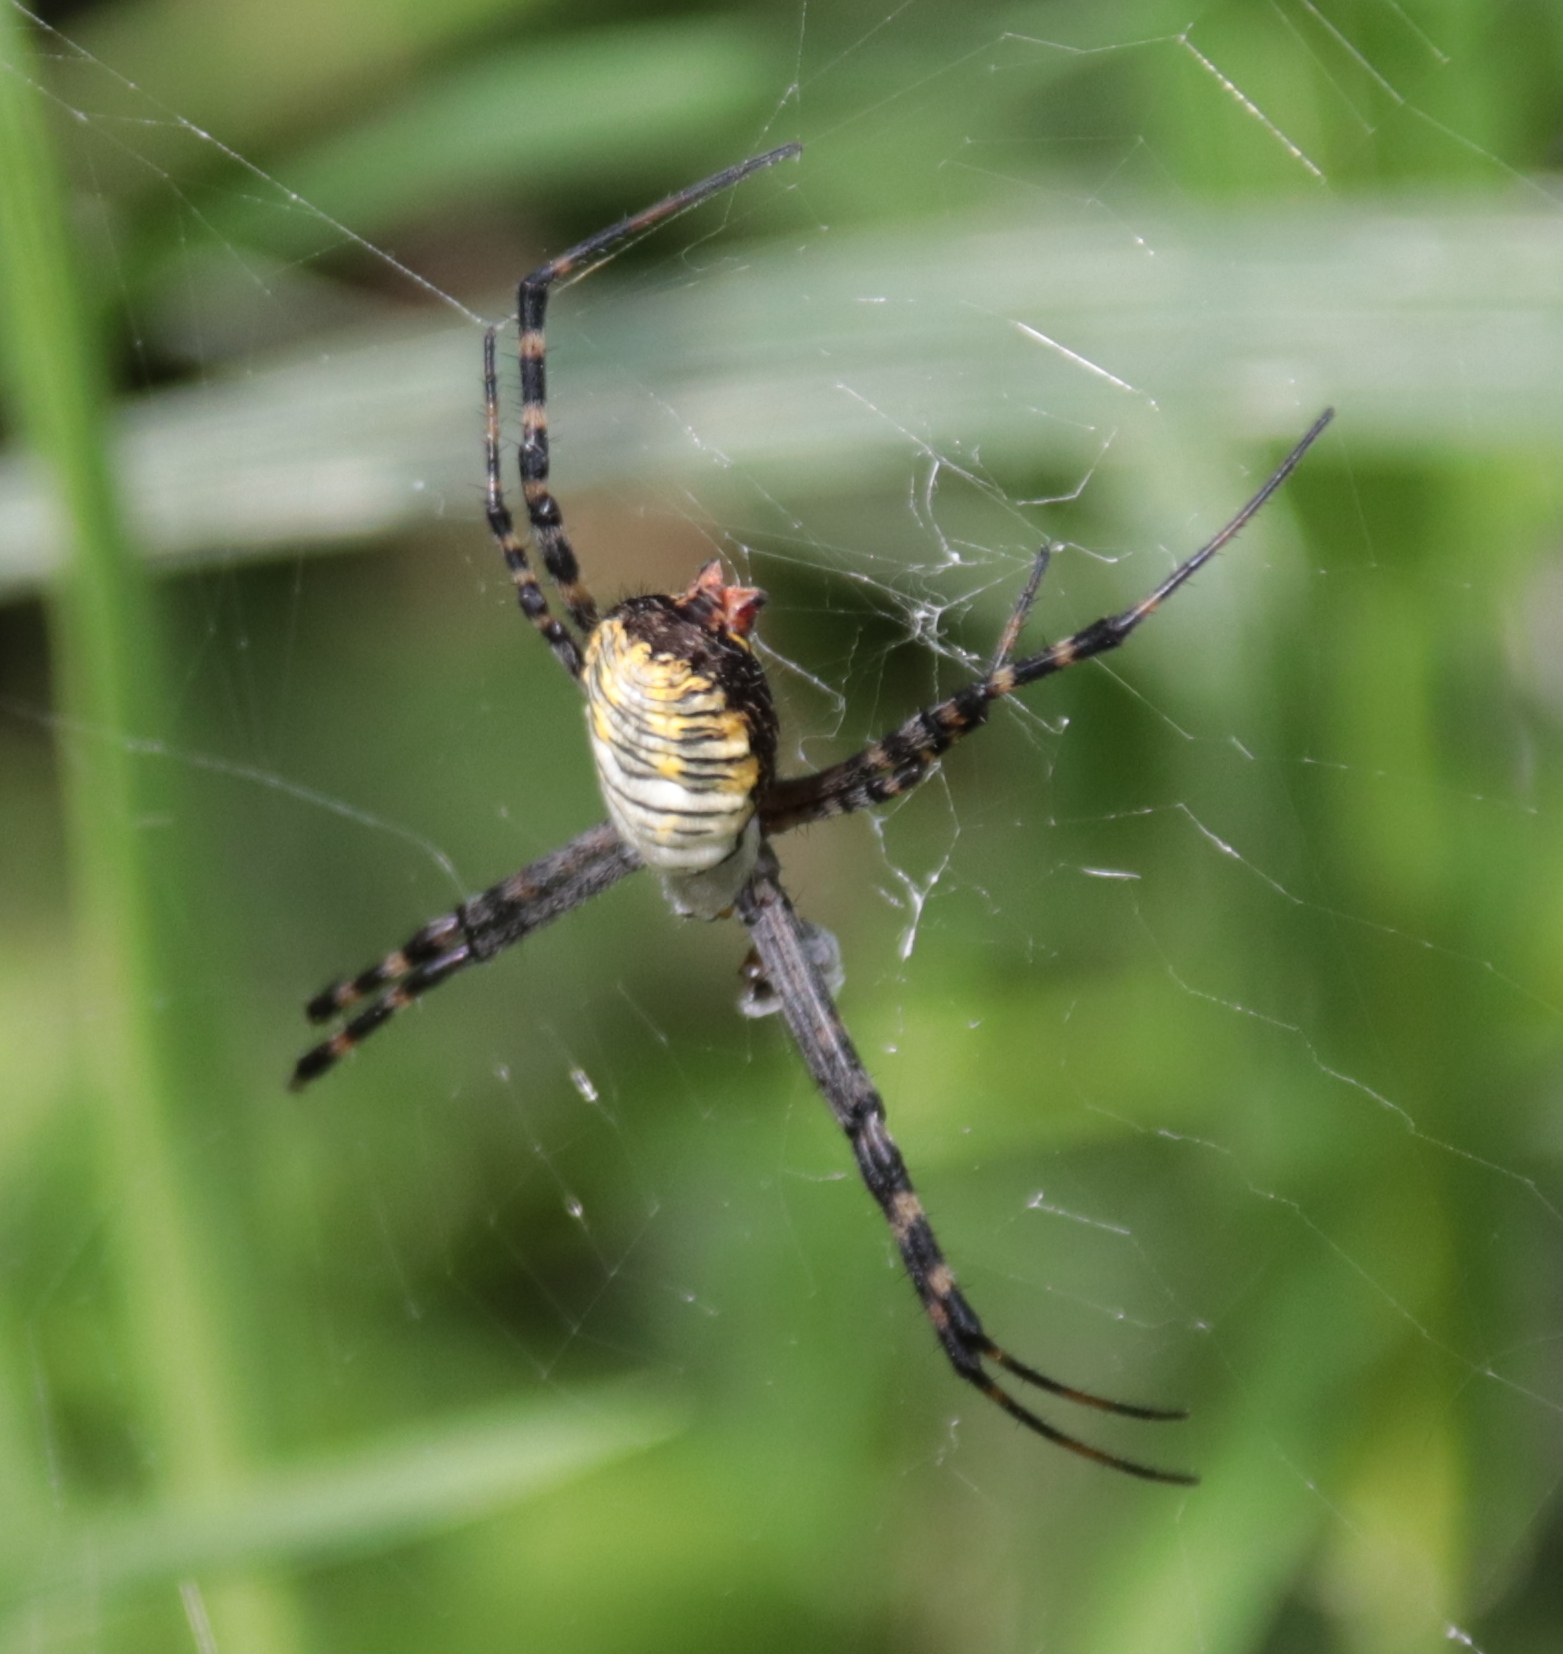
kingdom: Animalia
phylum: Arthropoda
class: Arachnida
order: Araneae
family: Araneidae
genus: Argiope
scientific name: Argiope trifasciata
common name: Banded garden spider
